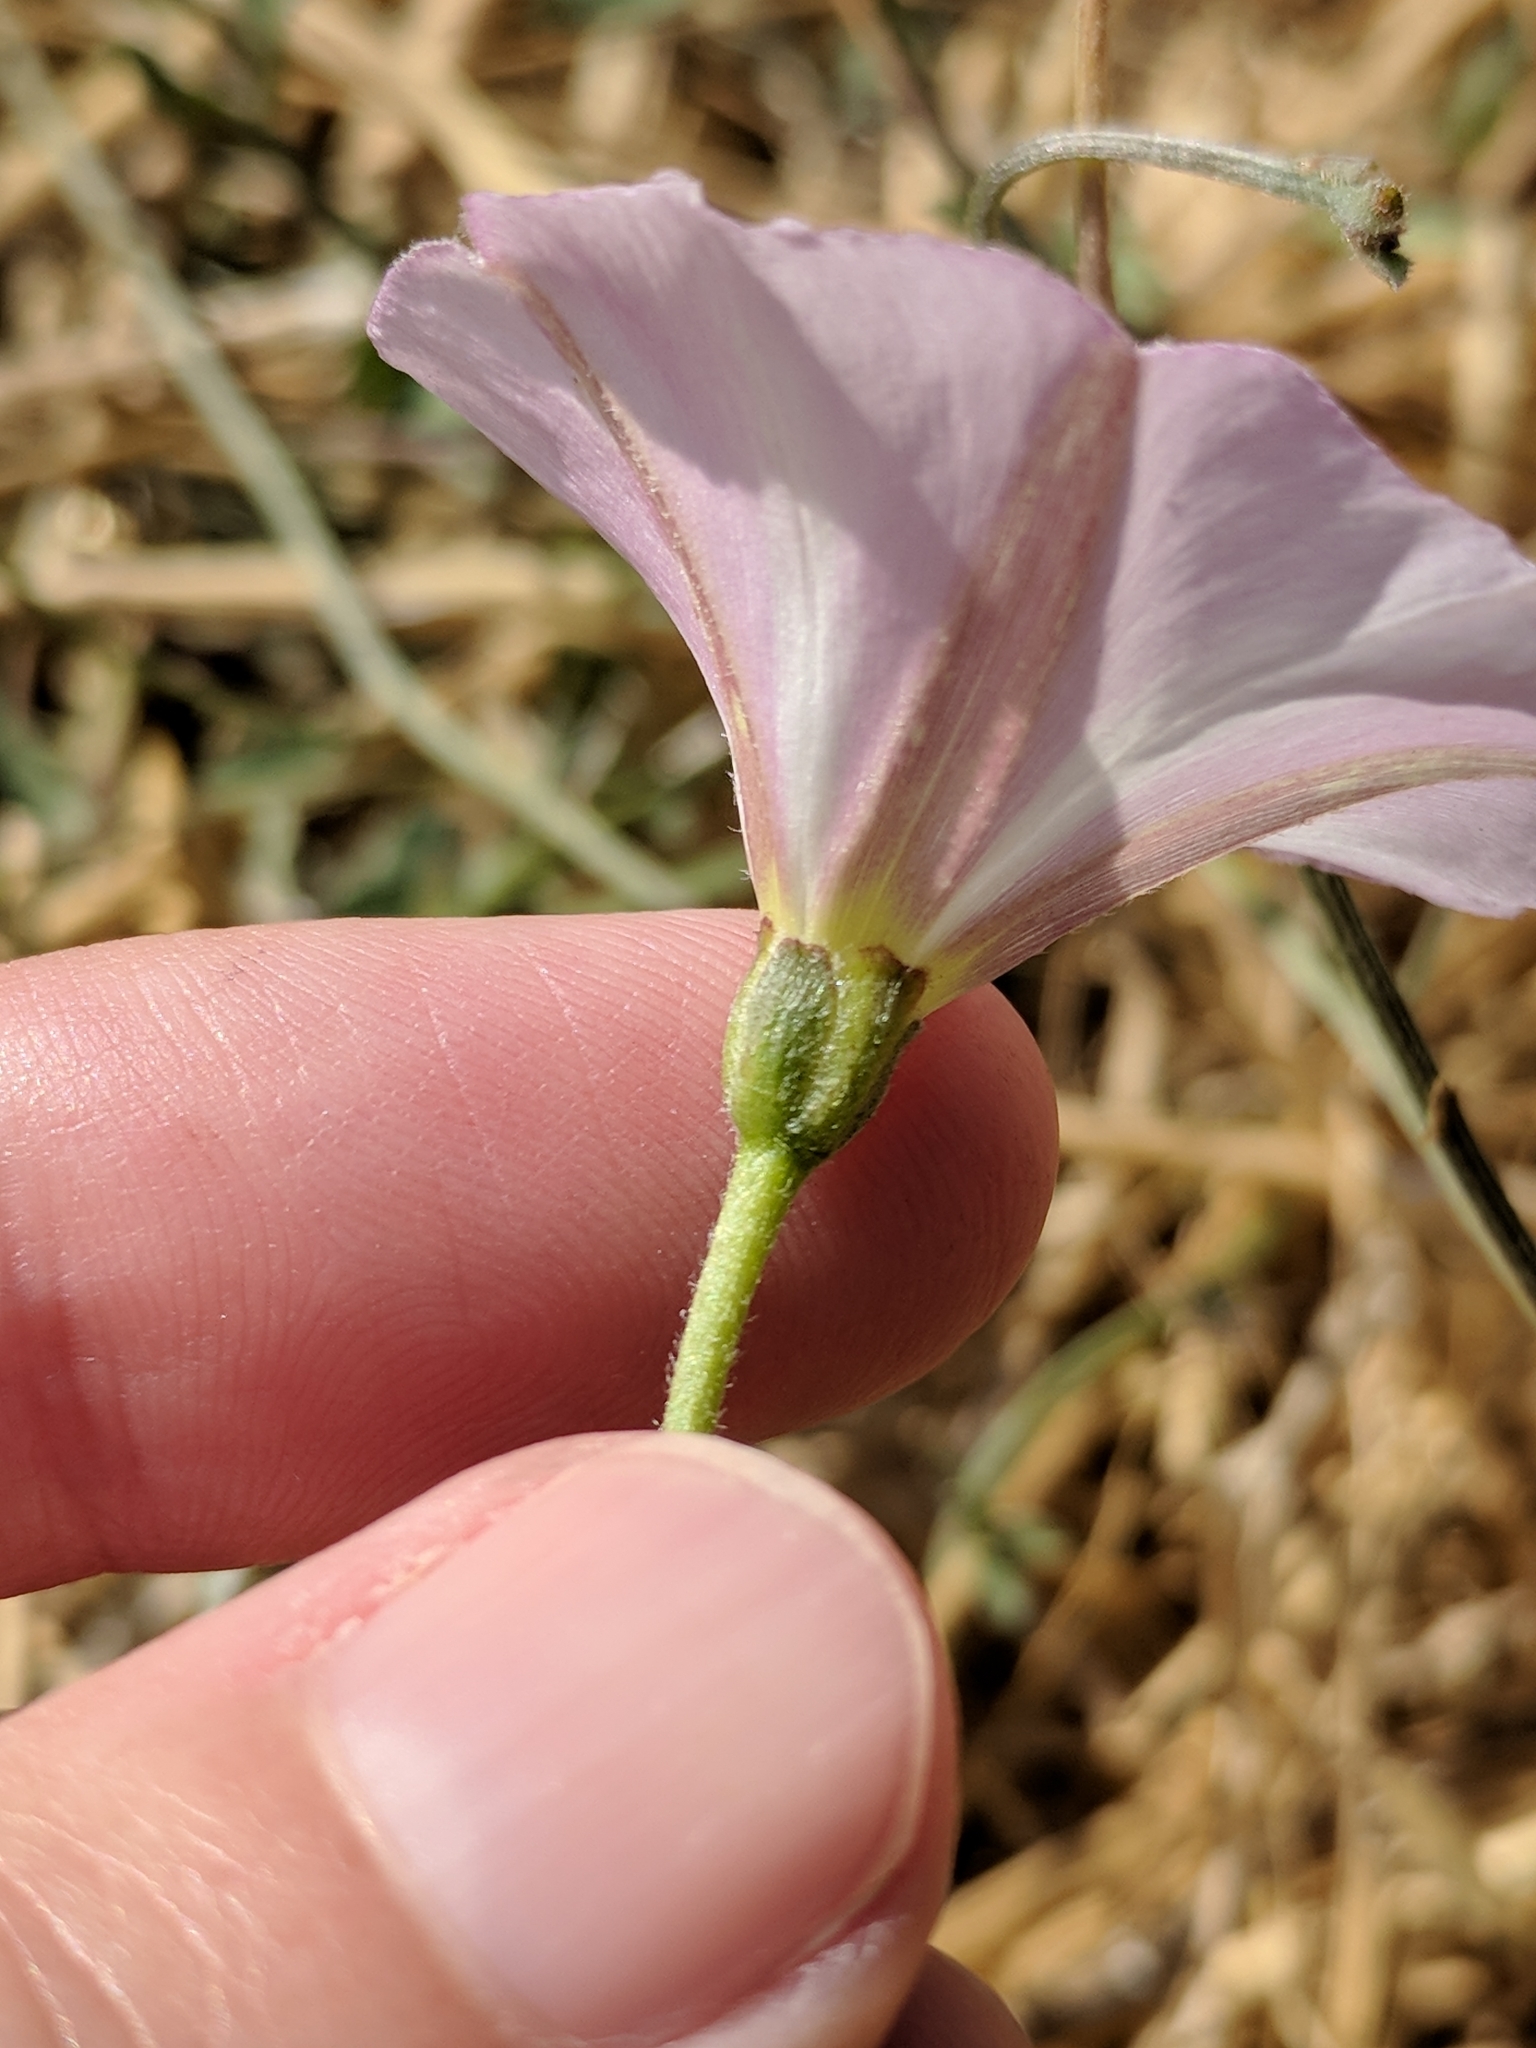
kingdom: Plantae
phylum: Tracheophyta
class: Magnoliopsida
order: Solanales
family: Convolvulaceae
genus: Convolvulus
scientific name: Convolvulus arvensis
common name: Field bindweed
